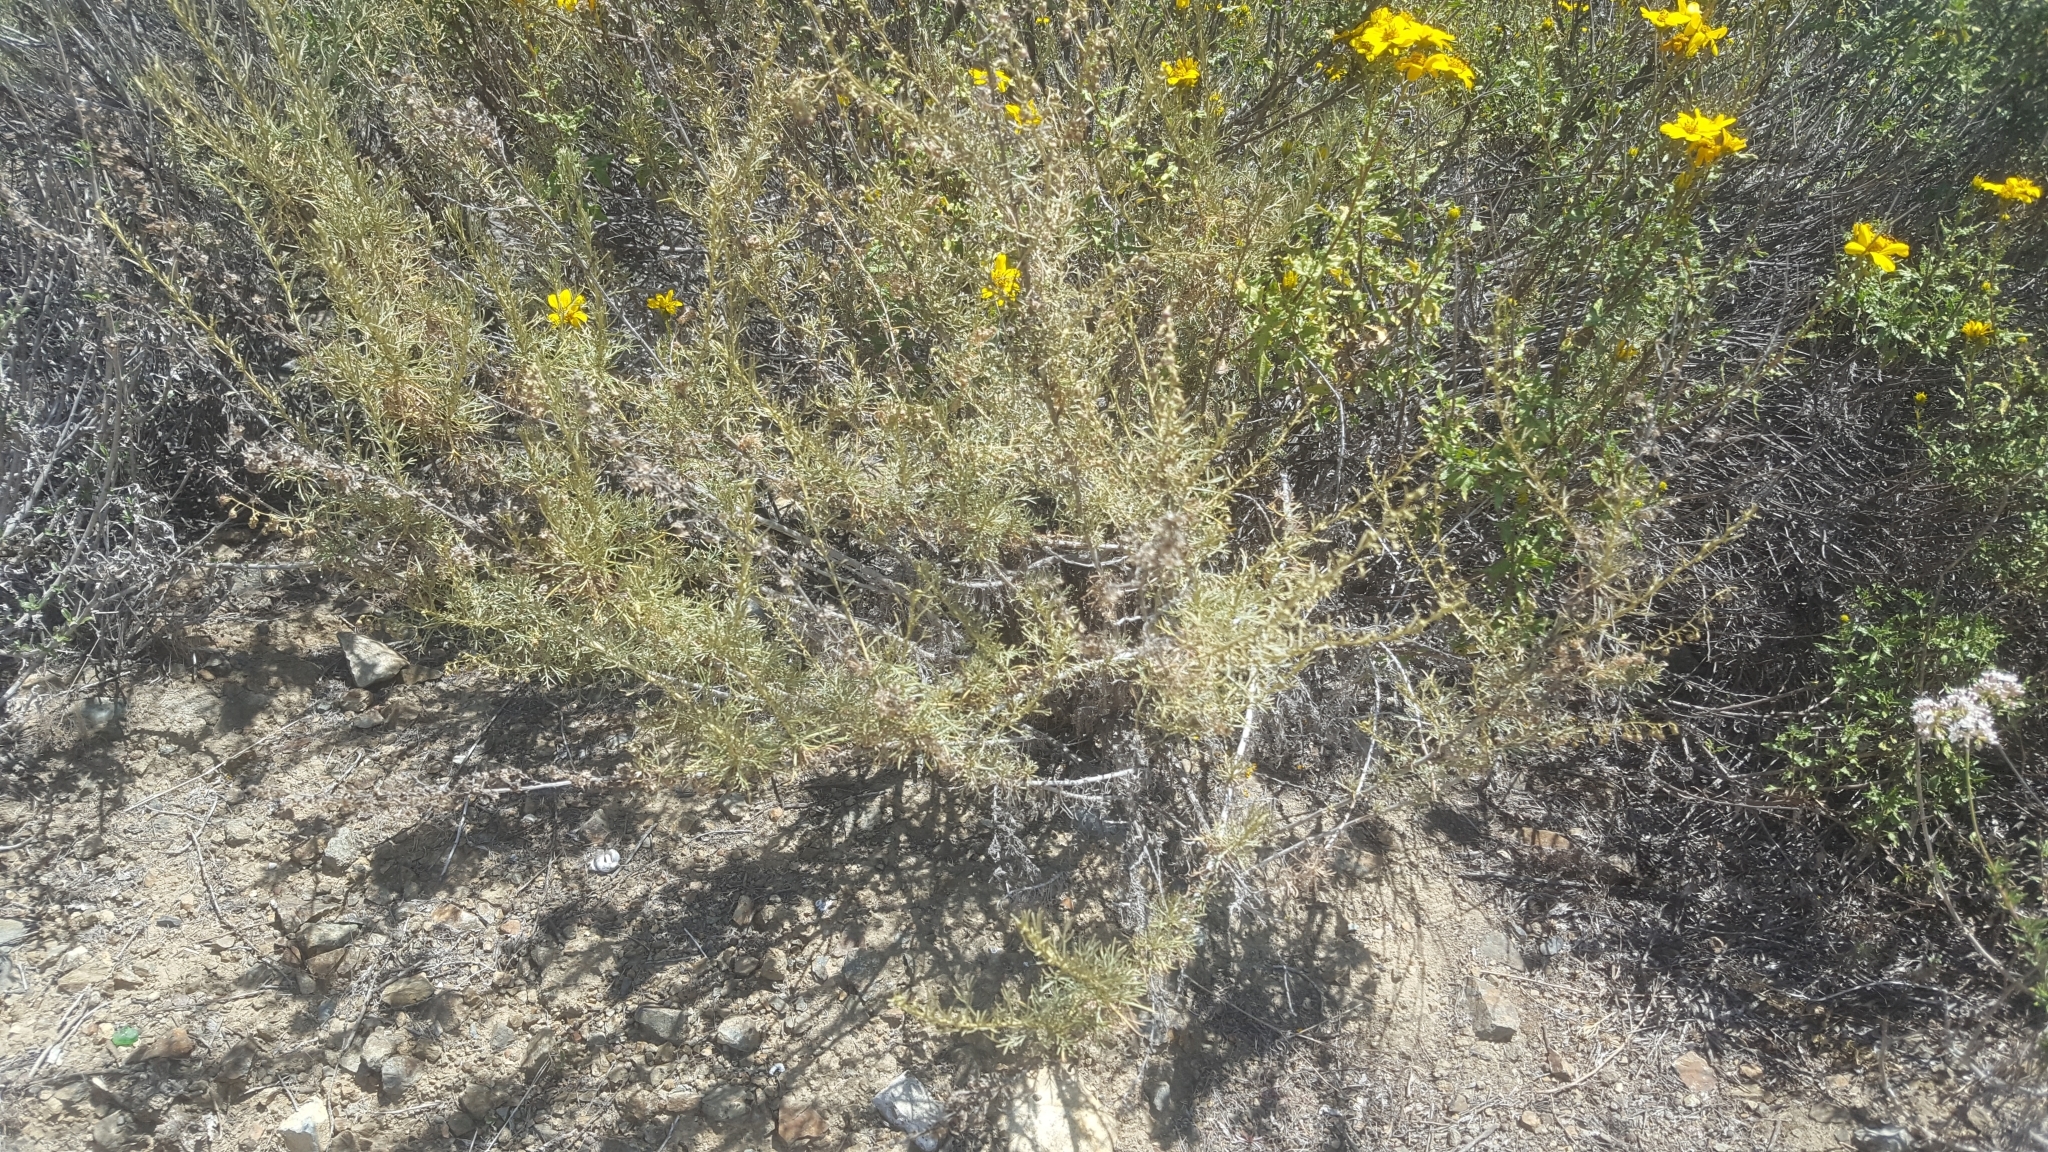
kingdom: Plantae
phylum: Tracheophyta
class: Magnoliopsida
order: Asterales
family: Asteraceae
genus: Artemisia
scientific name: Artemisia californica
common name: California sagebrush
